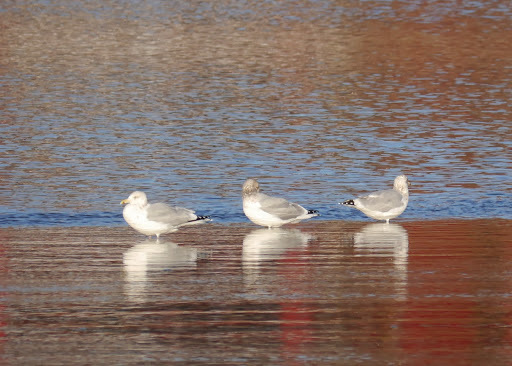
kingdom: Animalia
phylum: Chordata
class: Aves
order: Charadriiformes
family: Laridae
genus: Larus
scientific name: Larus argentatus
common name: Herring gull
